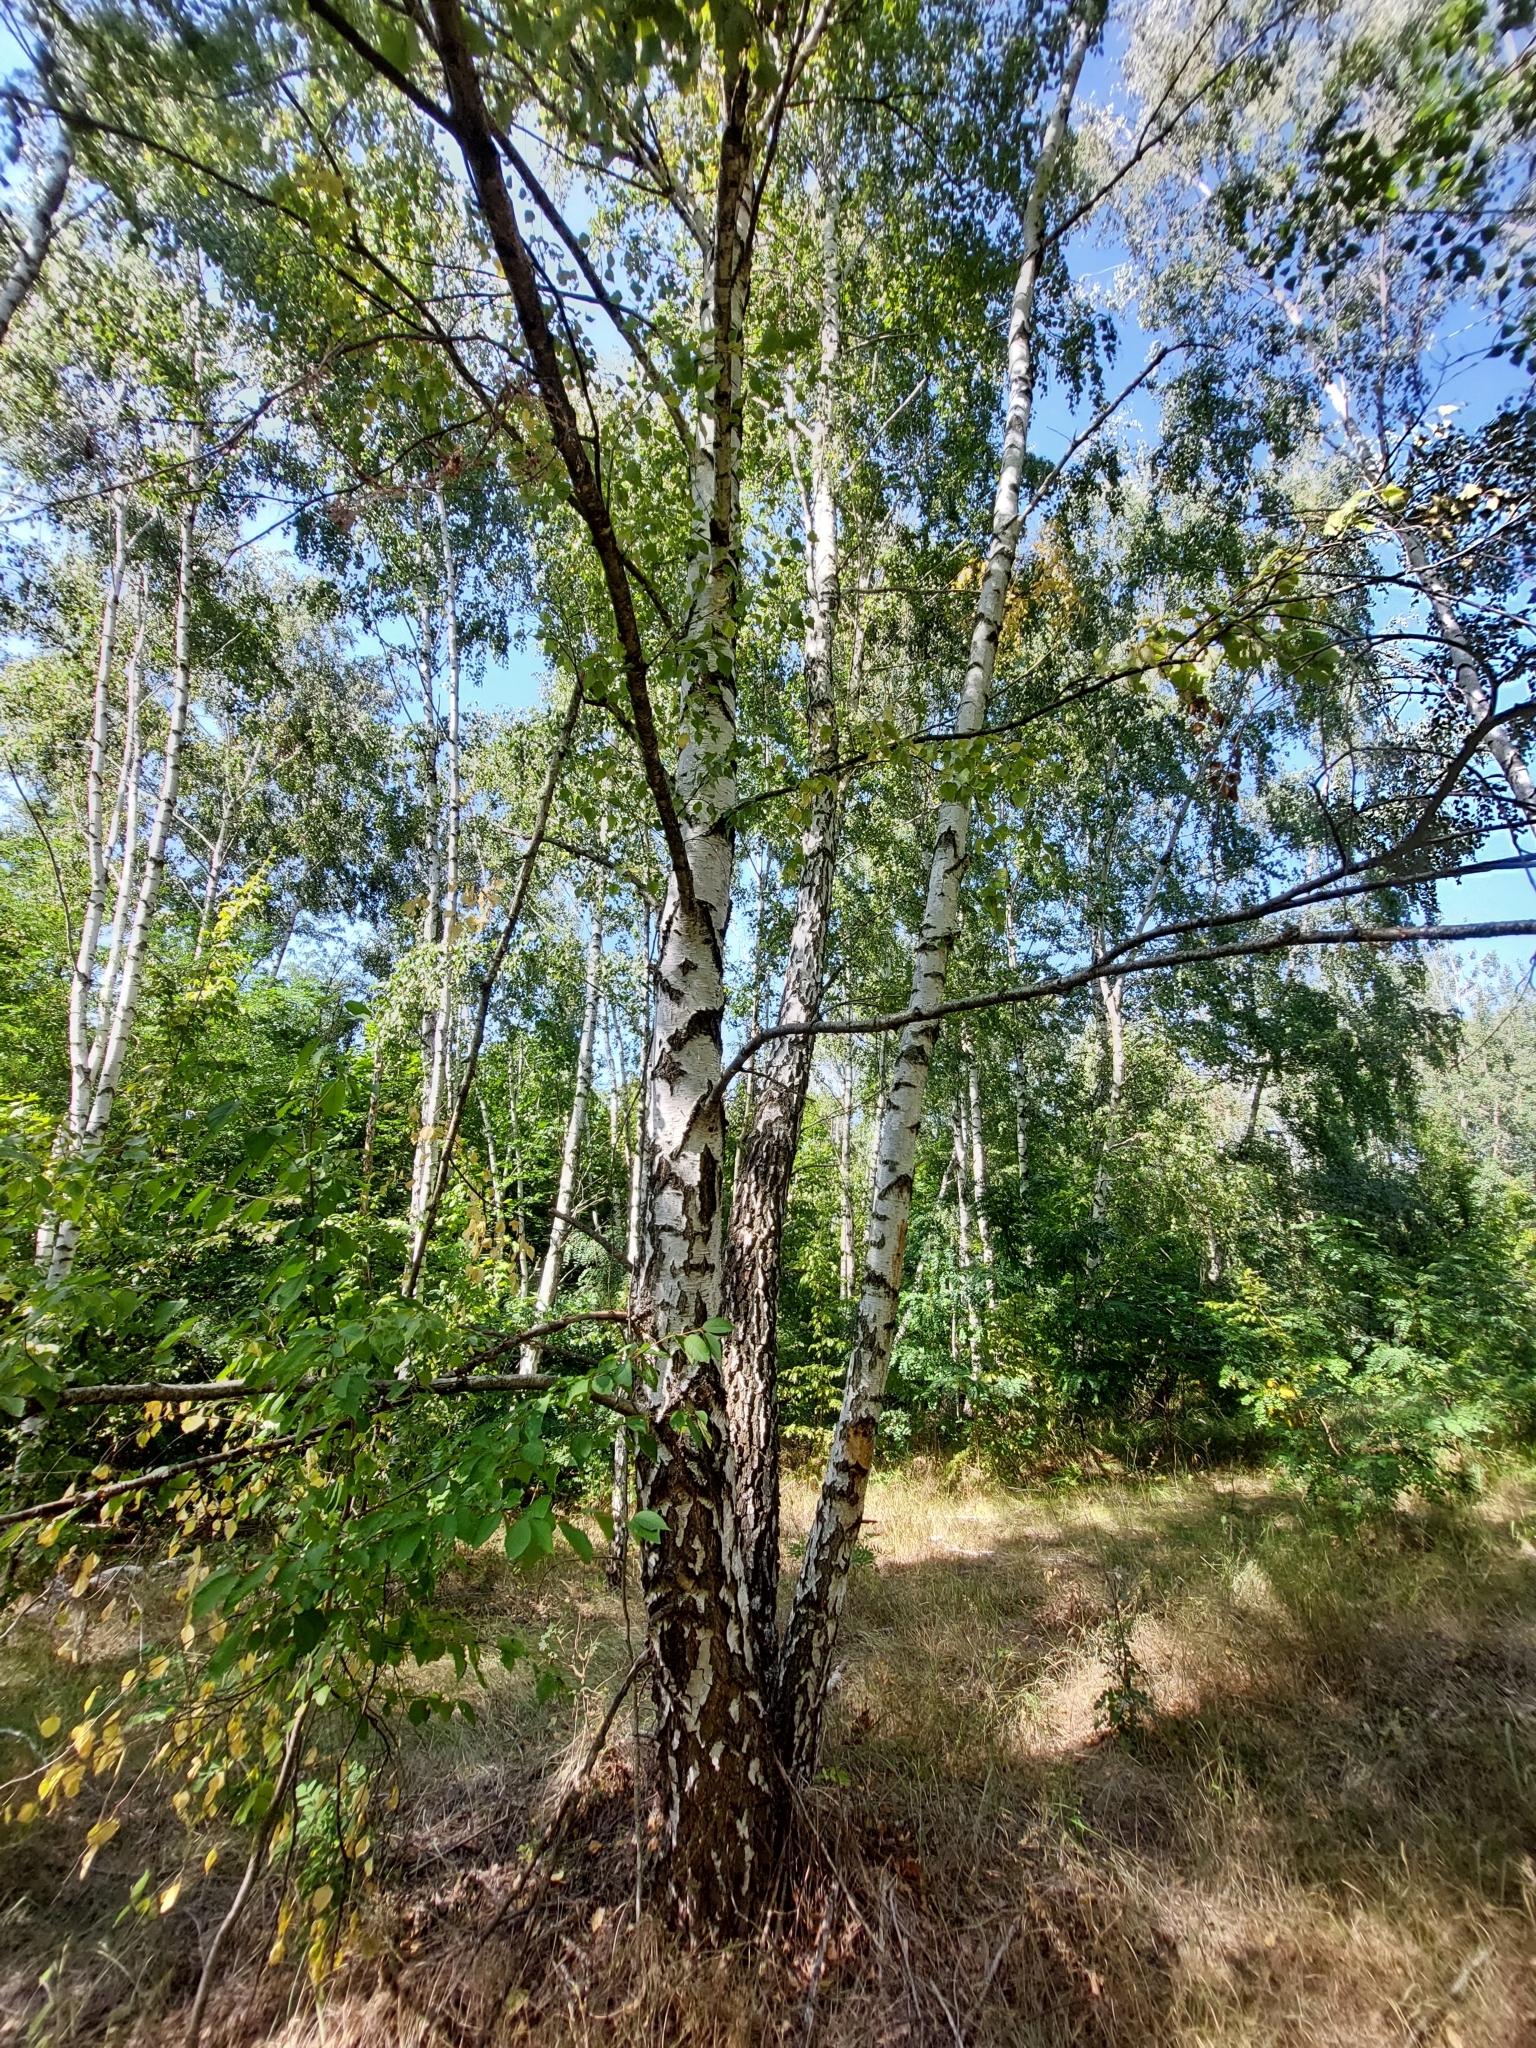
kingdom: Plantae
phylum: Tracheophyta
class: Magnoliopsida
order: Fagales
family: Betulaceae
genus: Betula
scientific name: Betula pendula
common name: Silver birch
